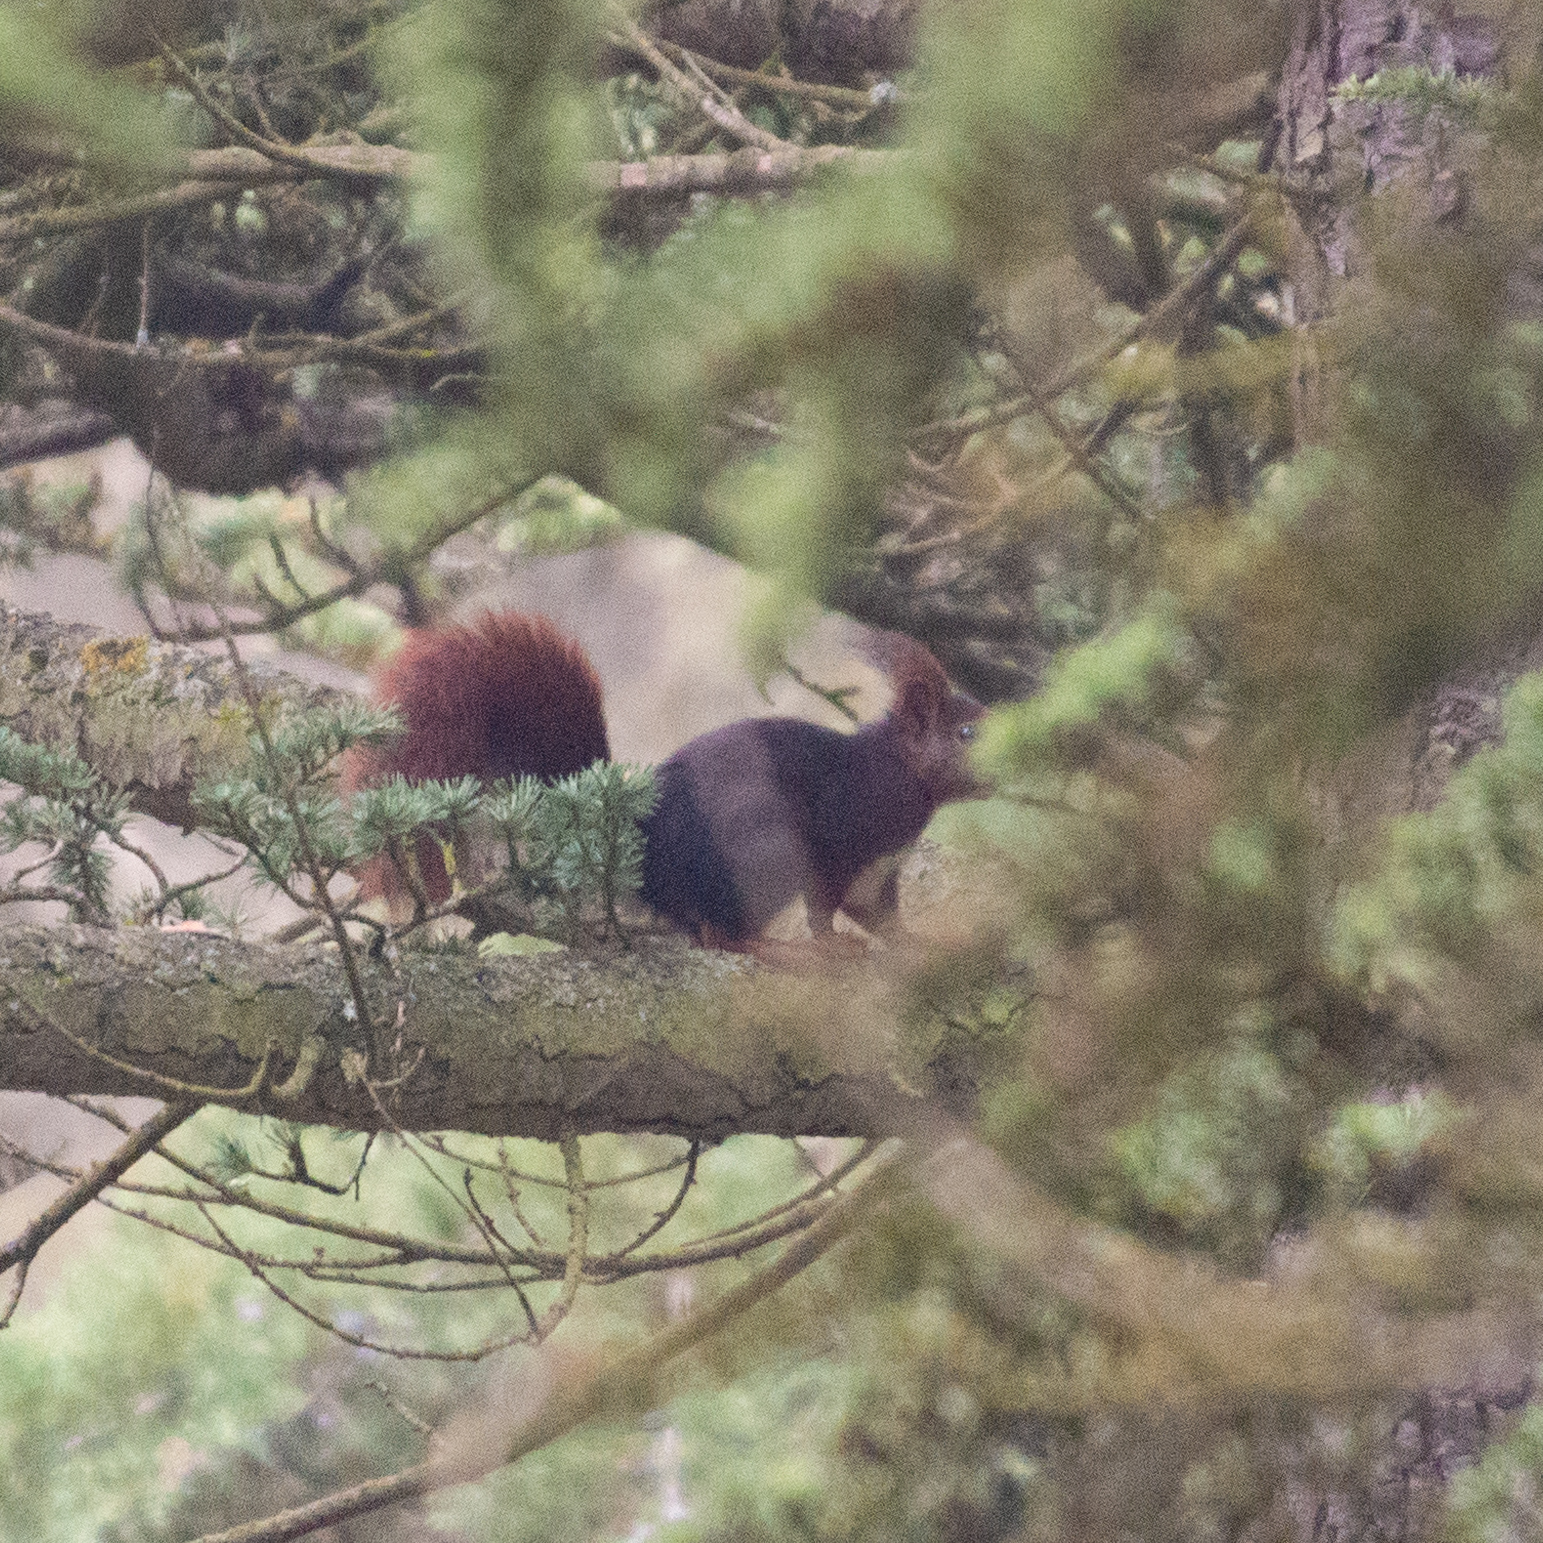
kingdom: Animalia
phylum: Chordata
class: Mammalia
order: Rodentia
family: Sciuridae
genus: Sciurus
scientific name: Sciurus vulgaris
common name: Eurasian red squirrel
